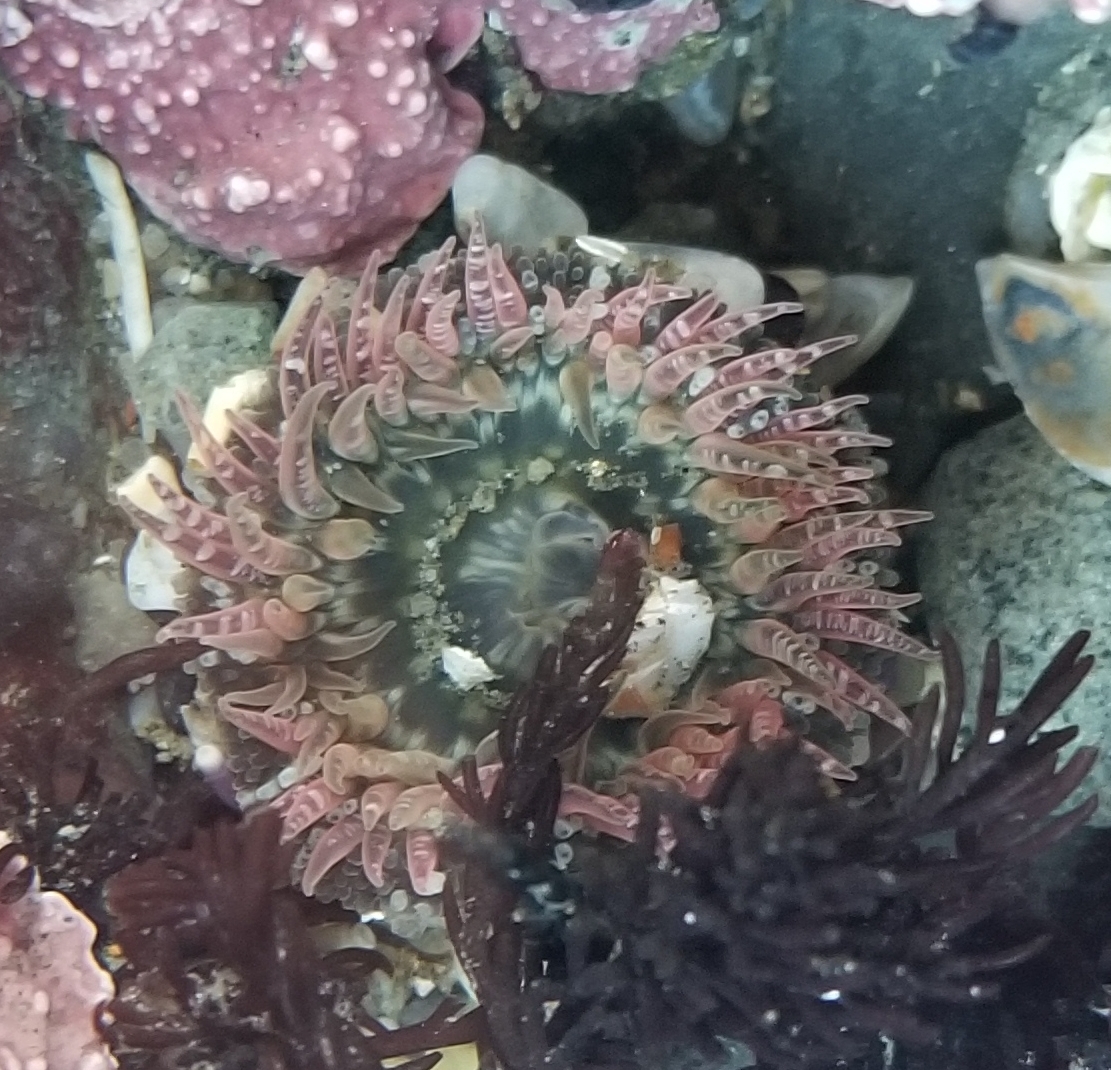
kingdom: Animalia
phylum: Cnidaria
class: Anthozoa
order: Actiniaria
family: Actiniidae
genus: Anthopleura
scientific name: Anthopleura artemisia
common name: Buried sea anemone
